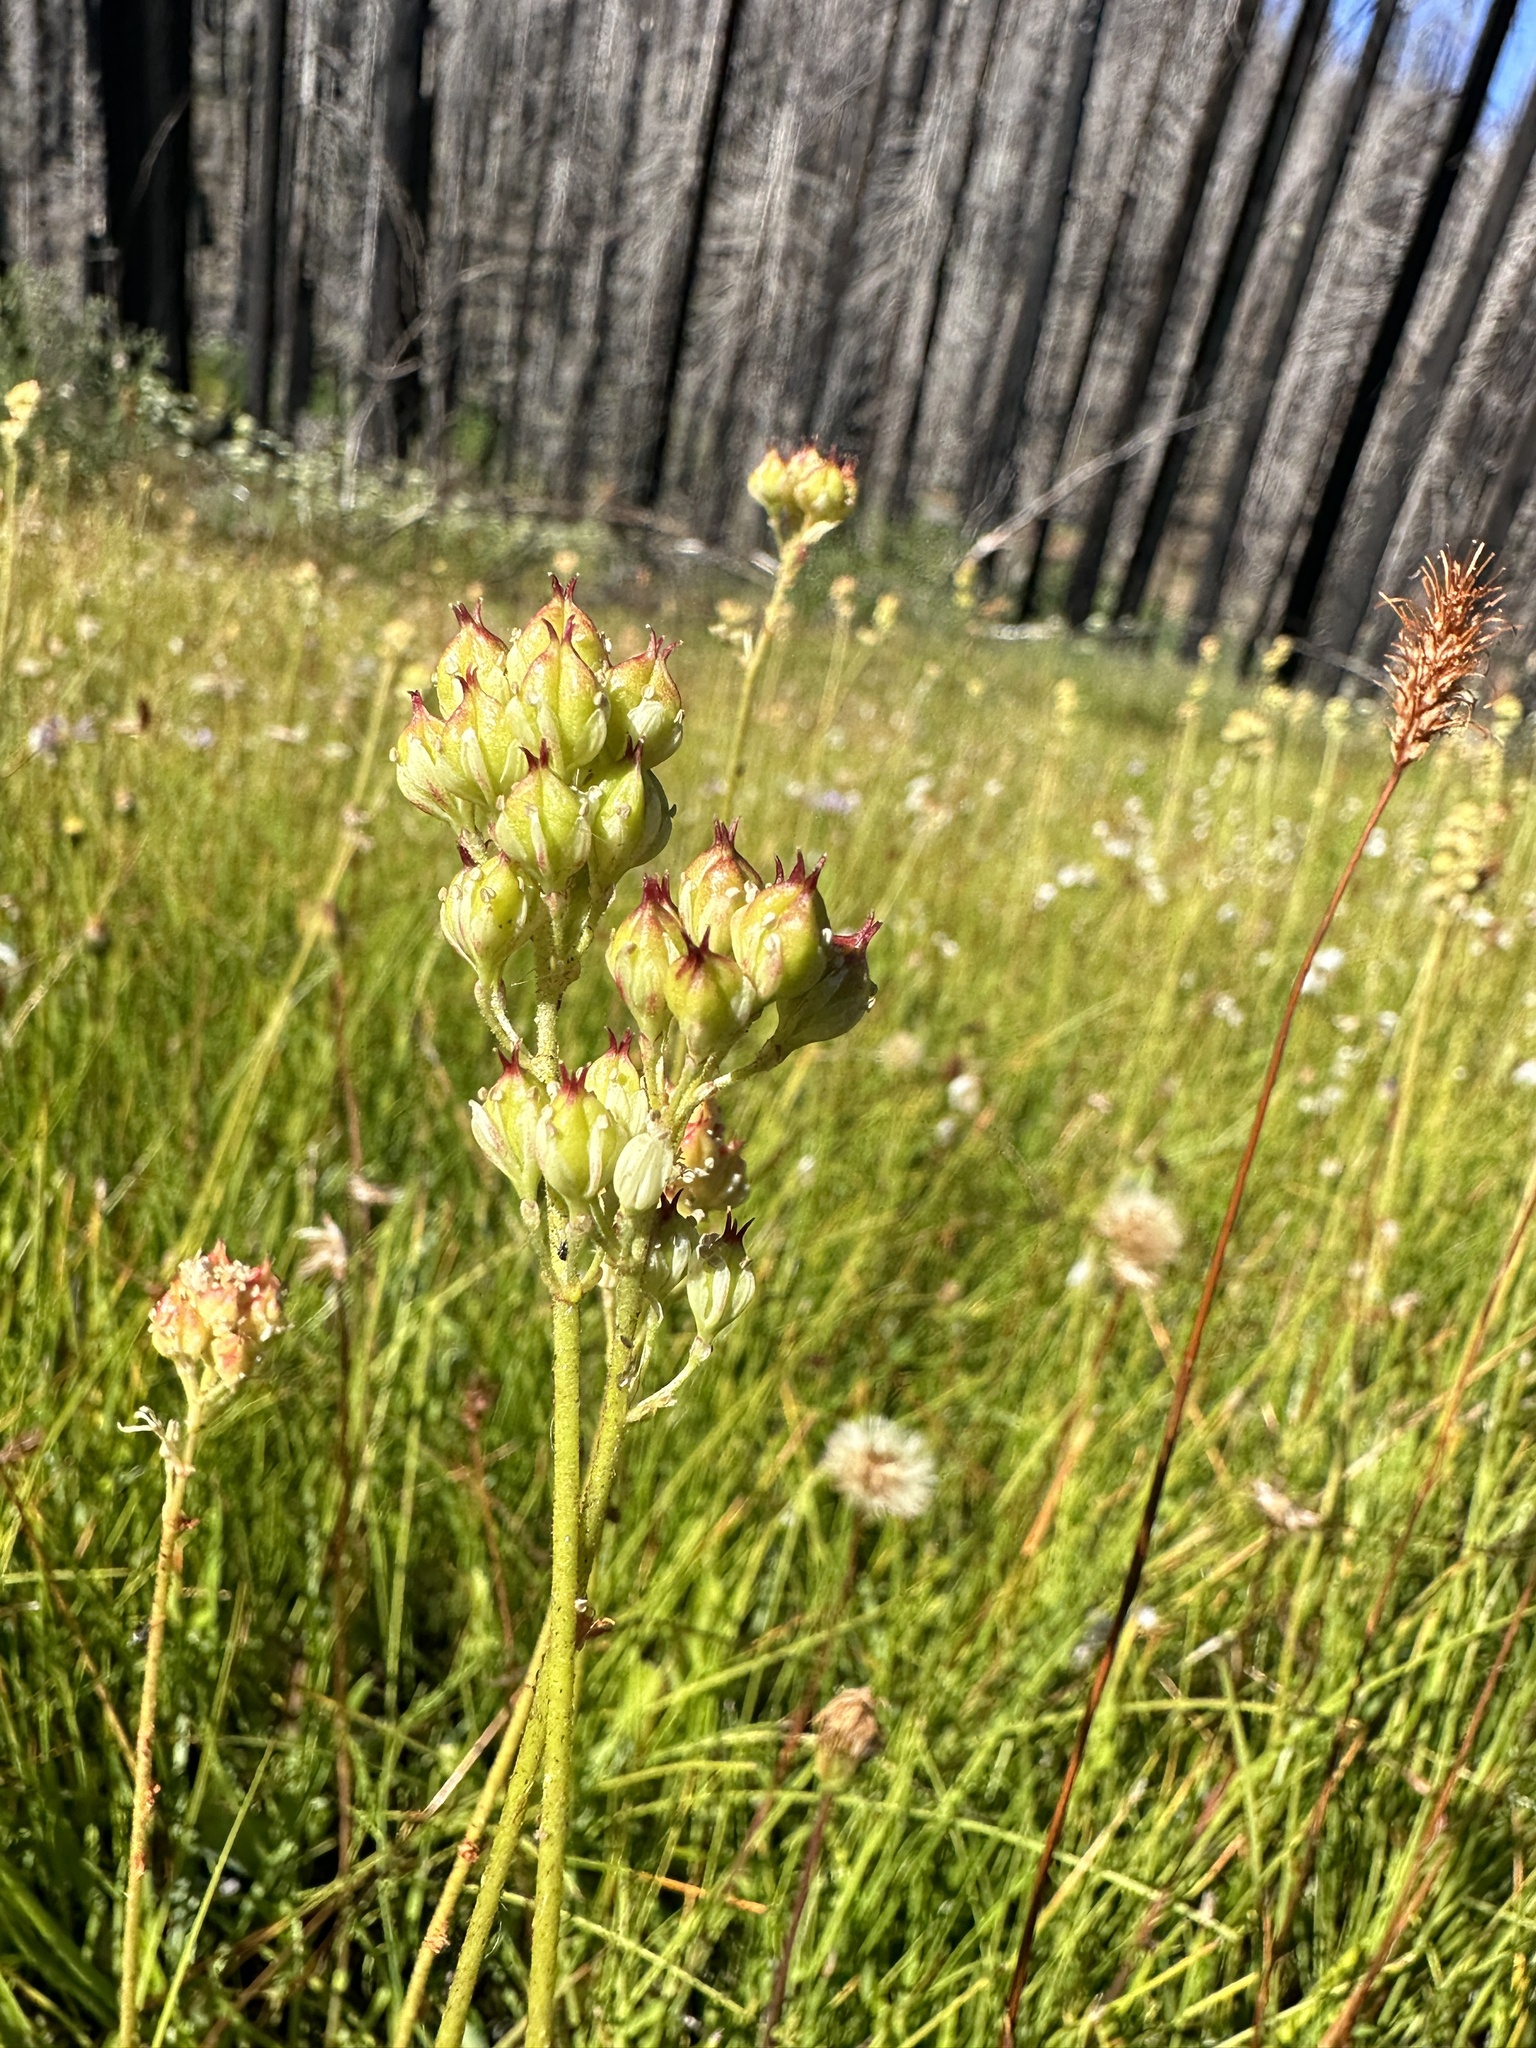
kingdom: Plantae
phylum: Tracheophyta
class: Liliopsida
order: Alismatales
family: Tofieldiaceae
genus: Triantha
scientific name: Triantha occidentalis
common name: Western false asphodel
